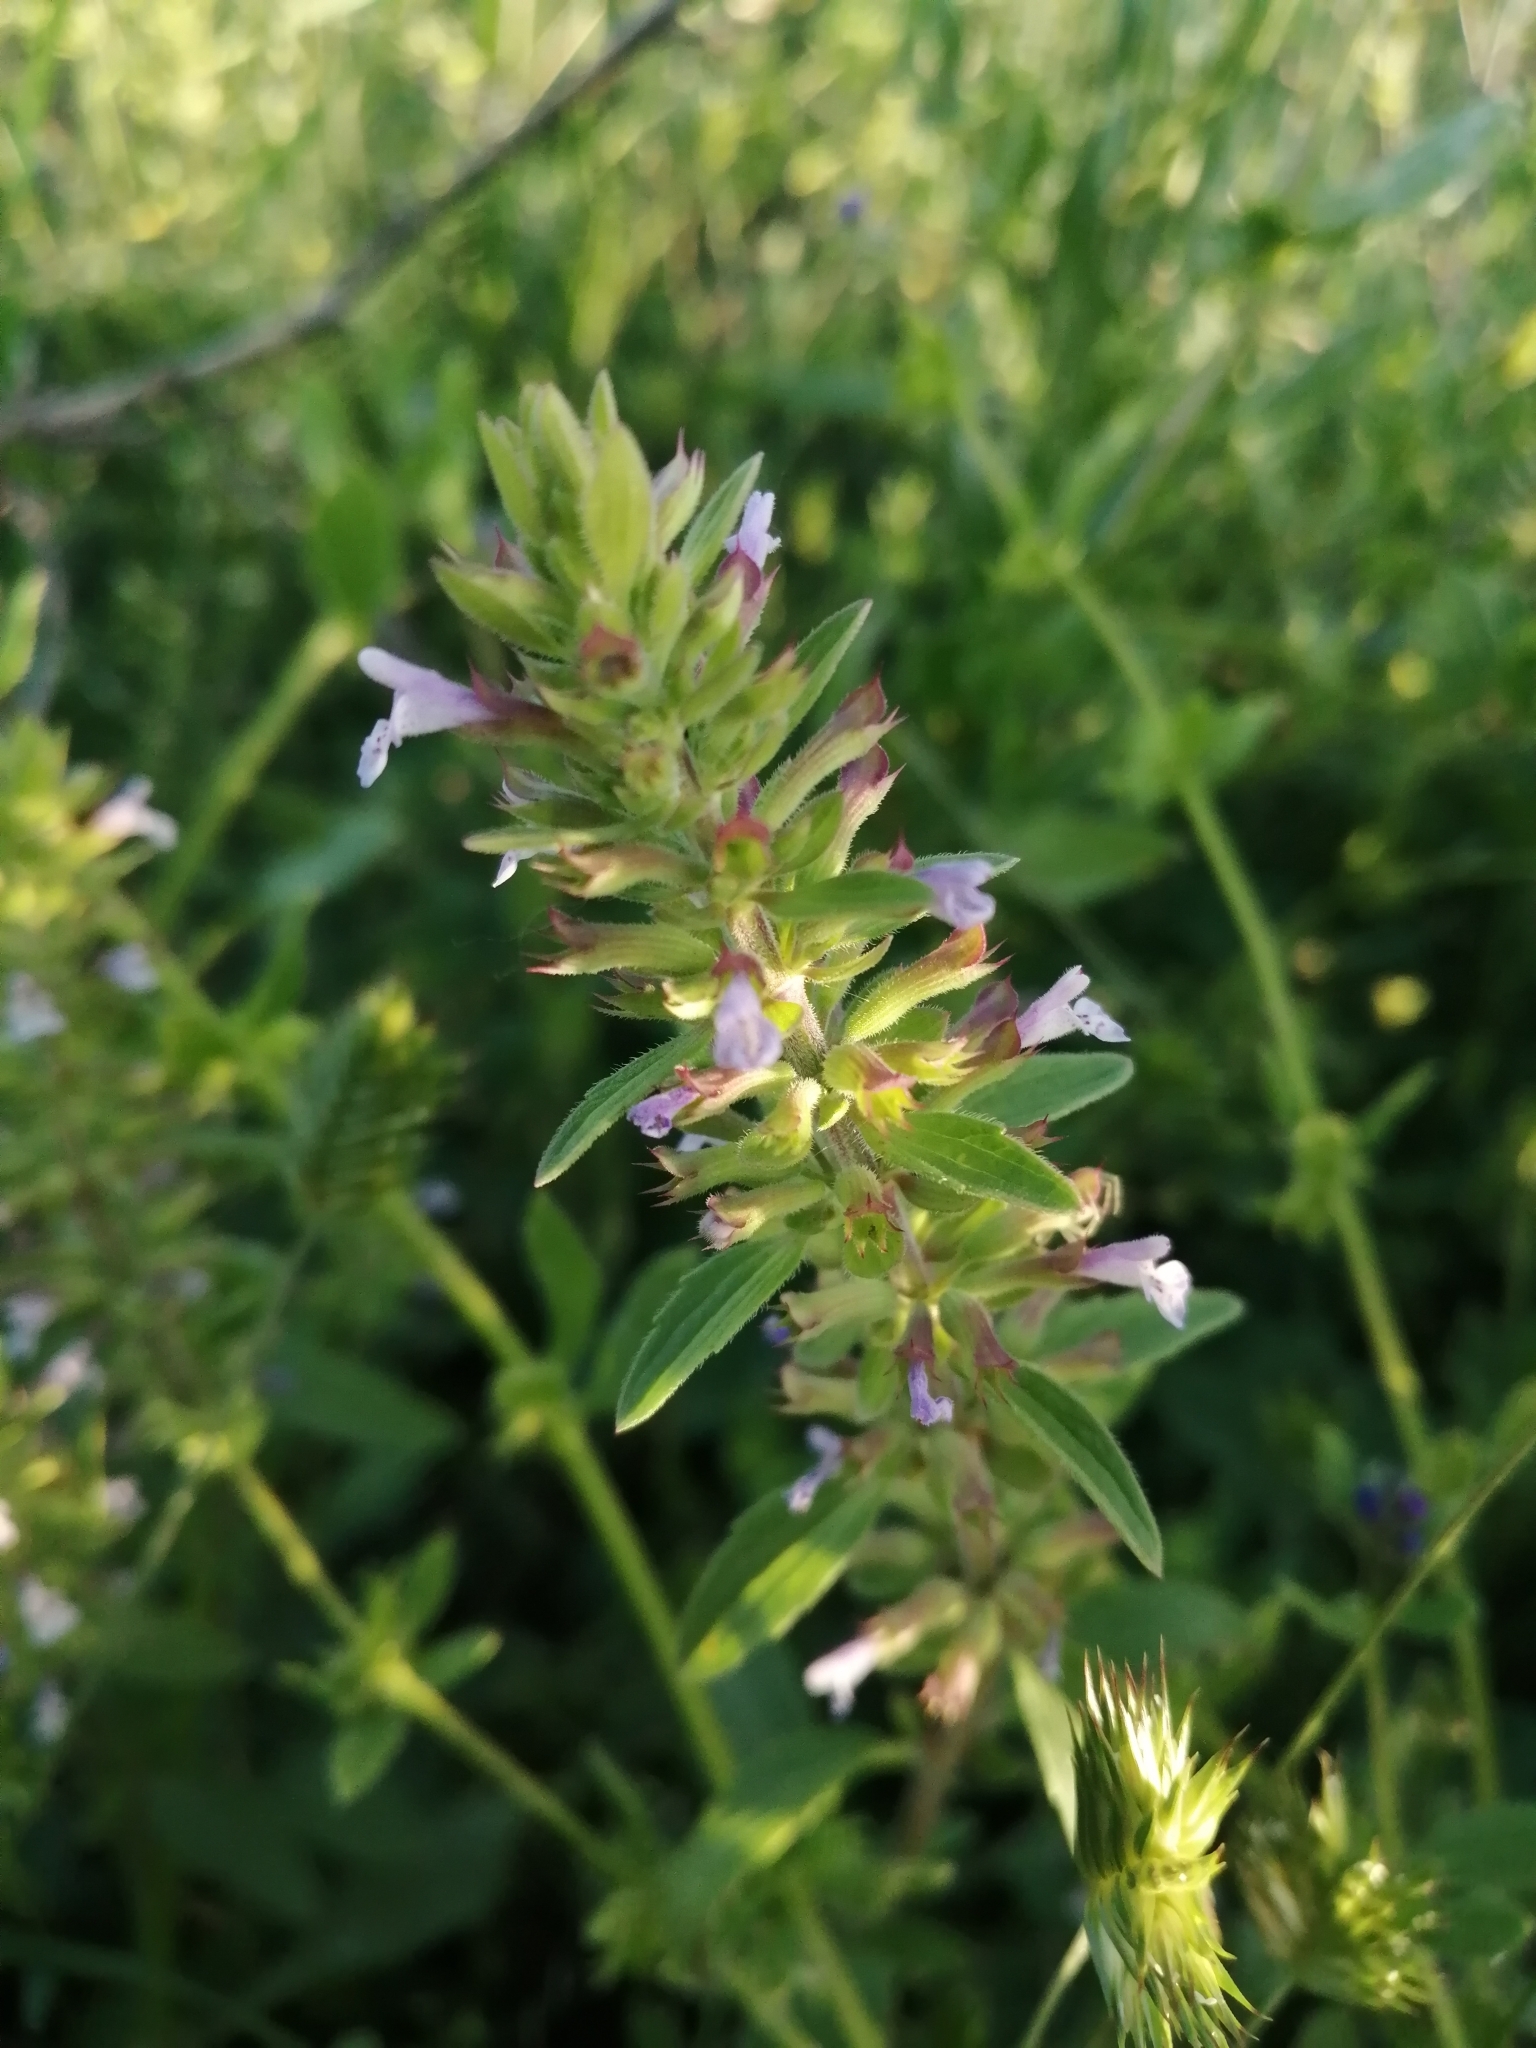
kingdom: Plantae
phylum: Tracheophyta
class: Magnoliopsida
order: Lamiales
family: Lamiaceae
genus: Dracocephalum
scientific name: Dracocephalum thymiflorum
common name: Thymeleaf dragonhead
